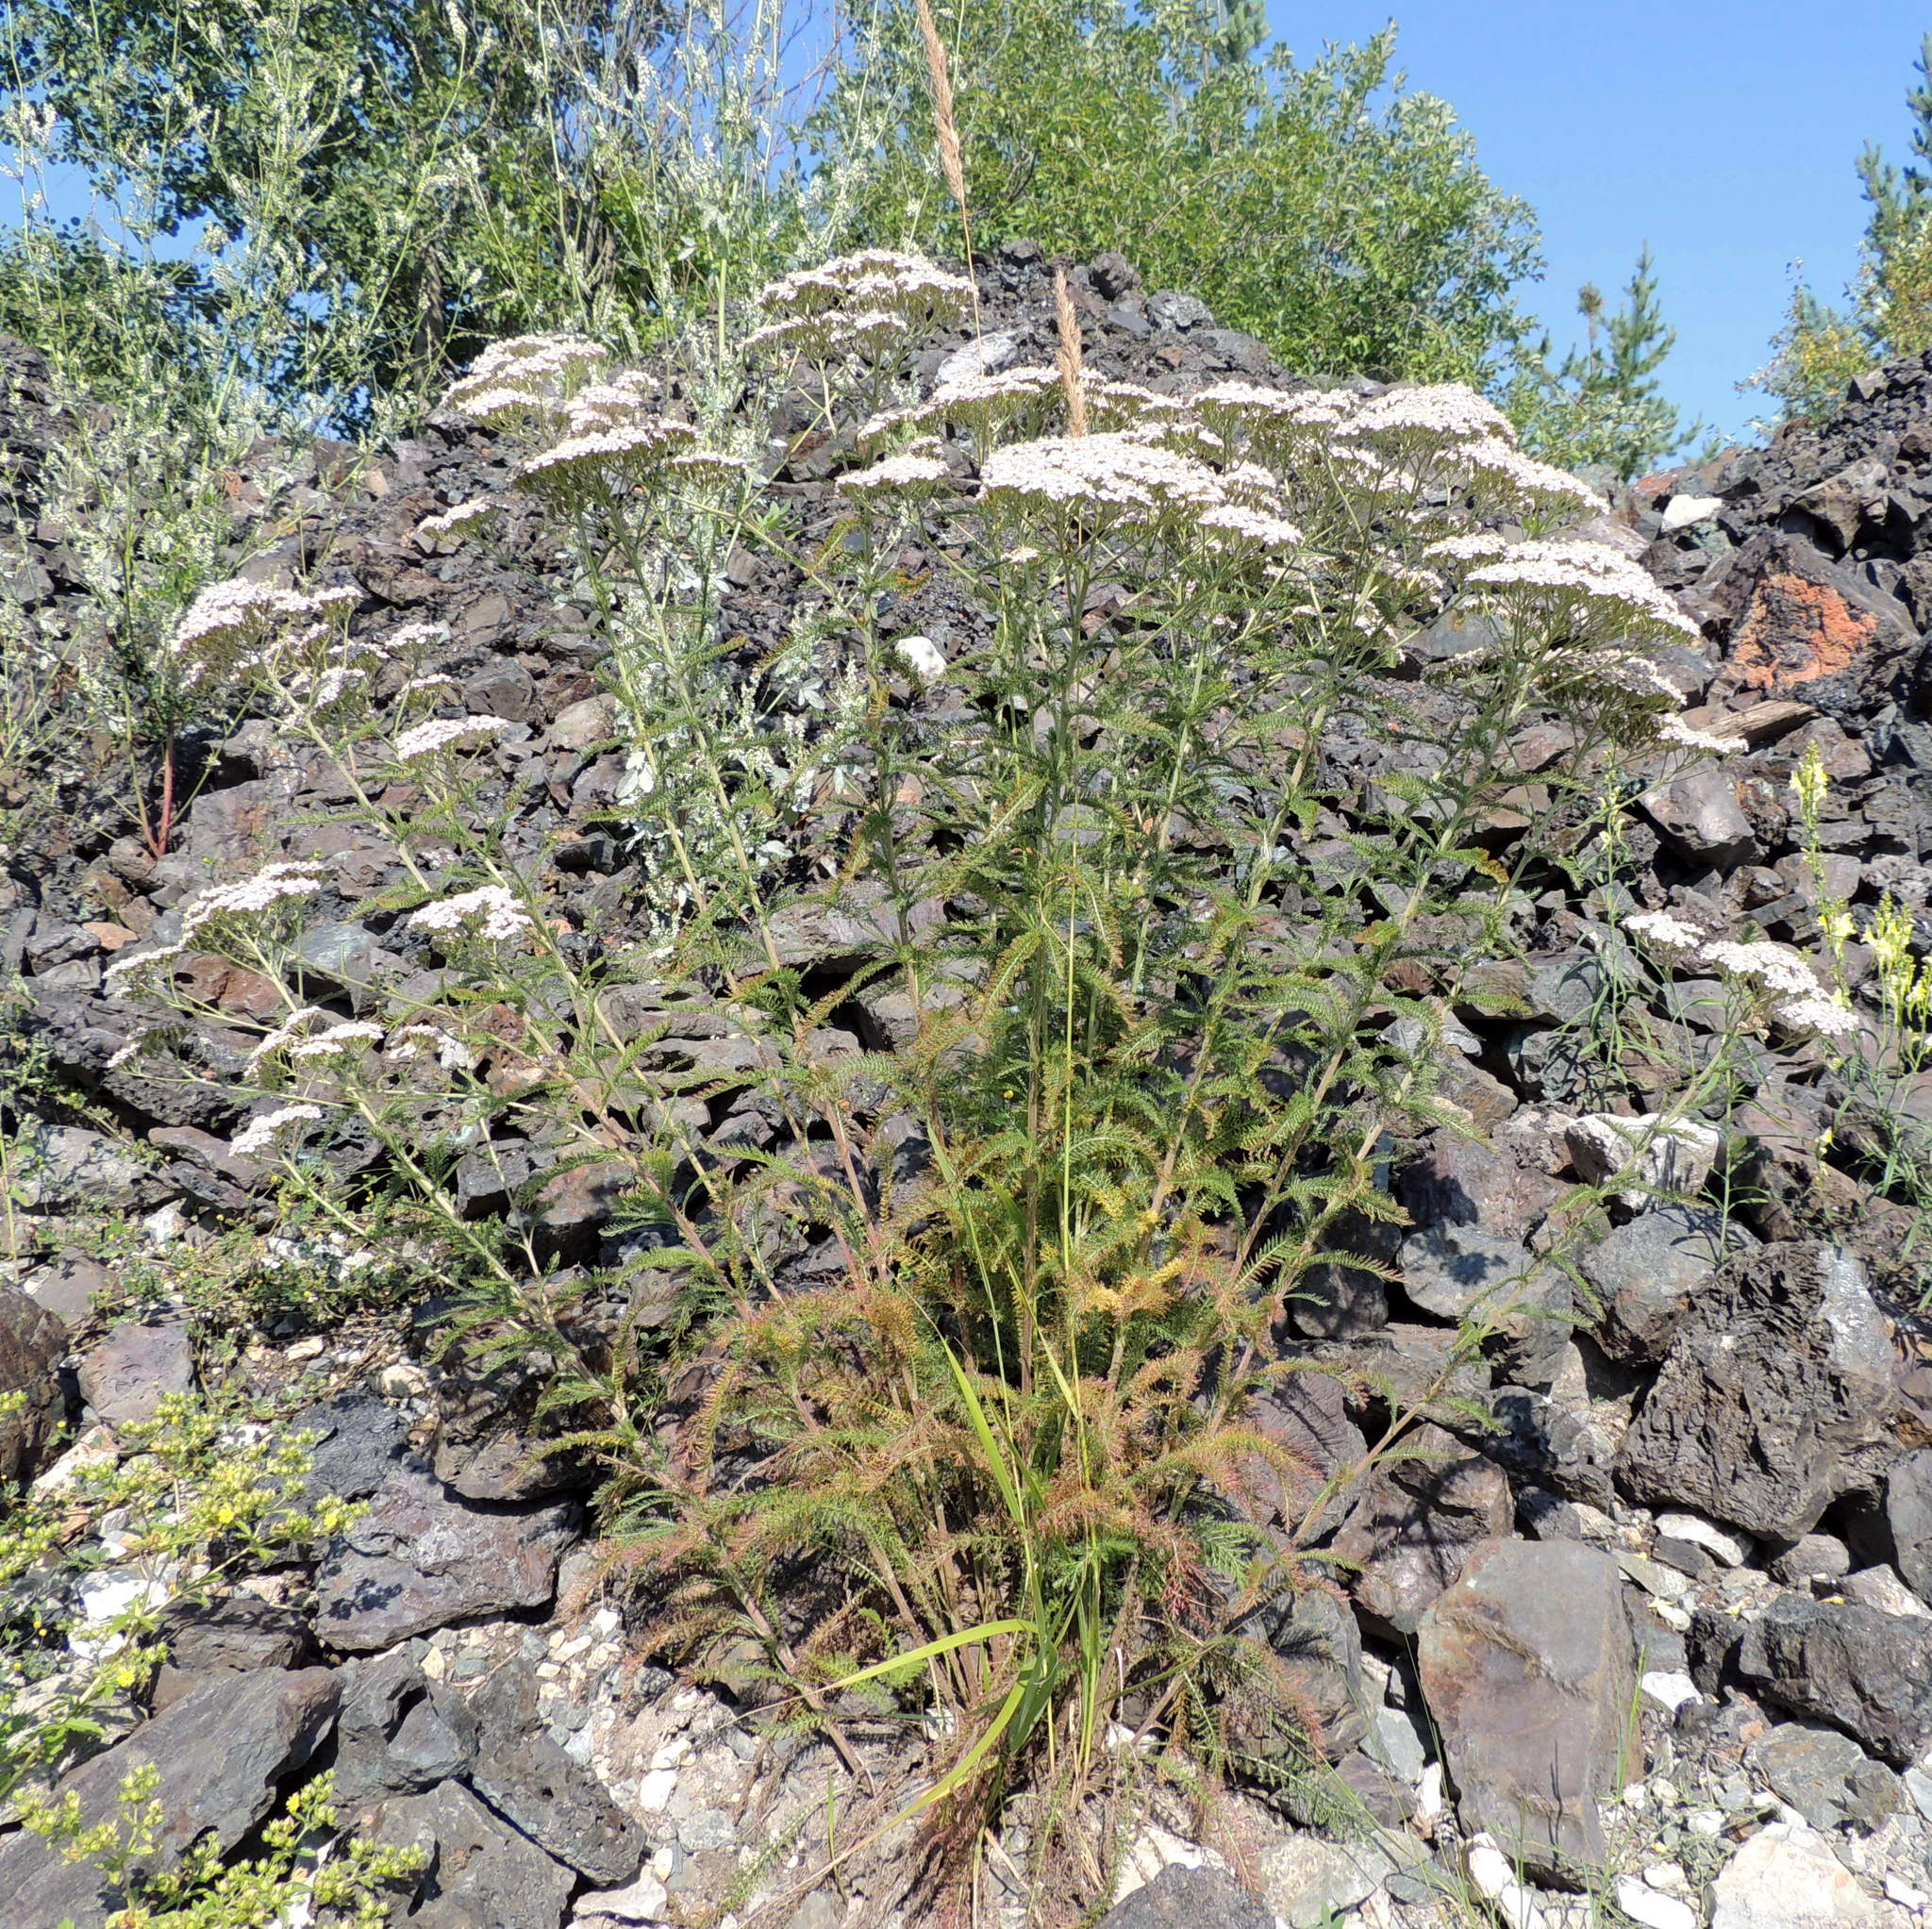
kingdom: Plantae
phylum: Tracheophyta
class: Magnoliopsida
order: Asterales
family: Asteraceae
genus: Achillea
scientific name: Achillea millefolium
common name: Yarrow
